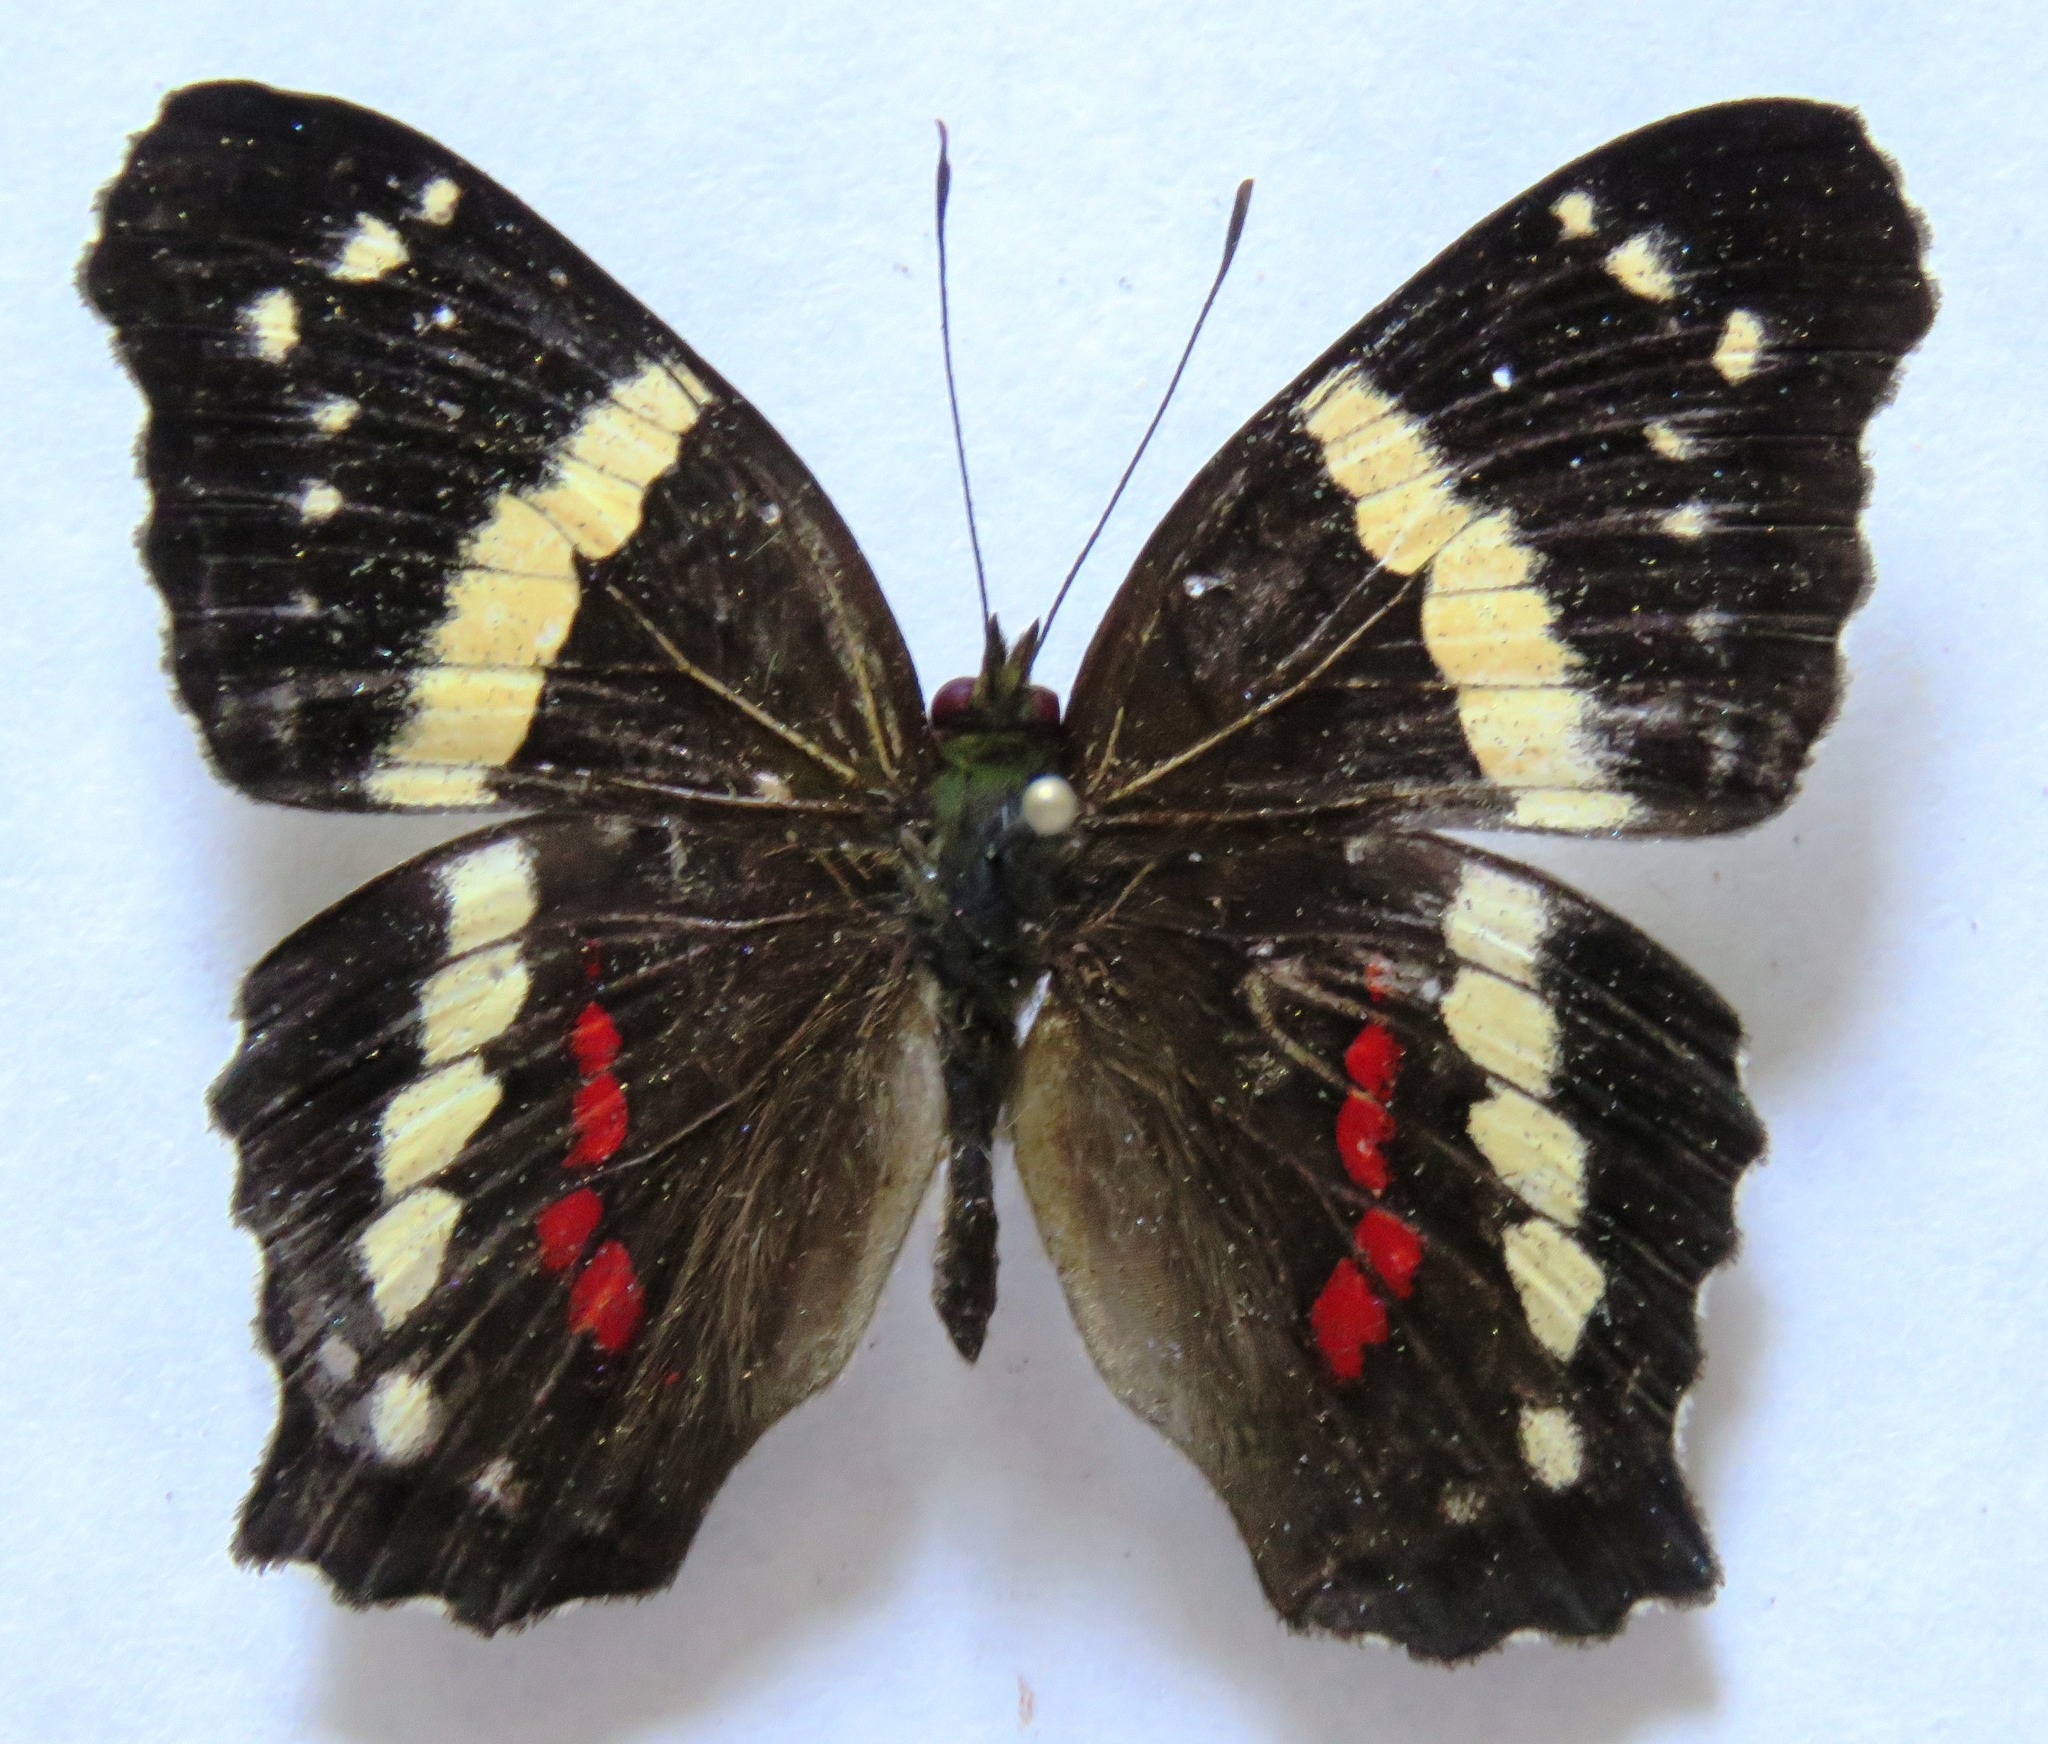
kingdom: Animalia
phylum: Arthropoda
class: Insecta
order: Lepidoptera
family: Nymphalidae
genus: Anartia
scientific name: Anartia fatima
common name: Banded peacock
